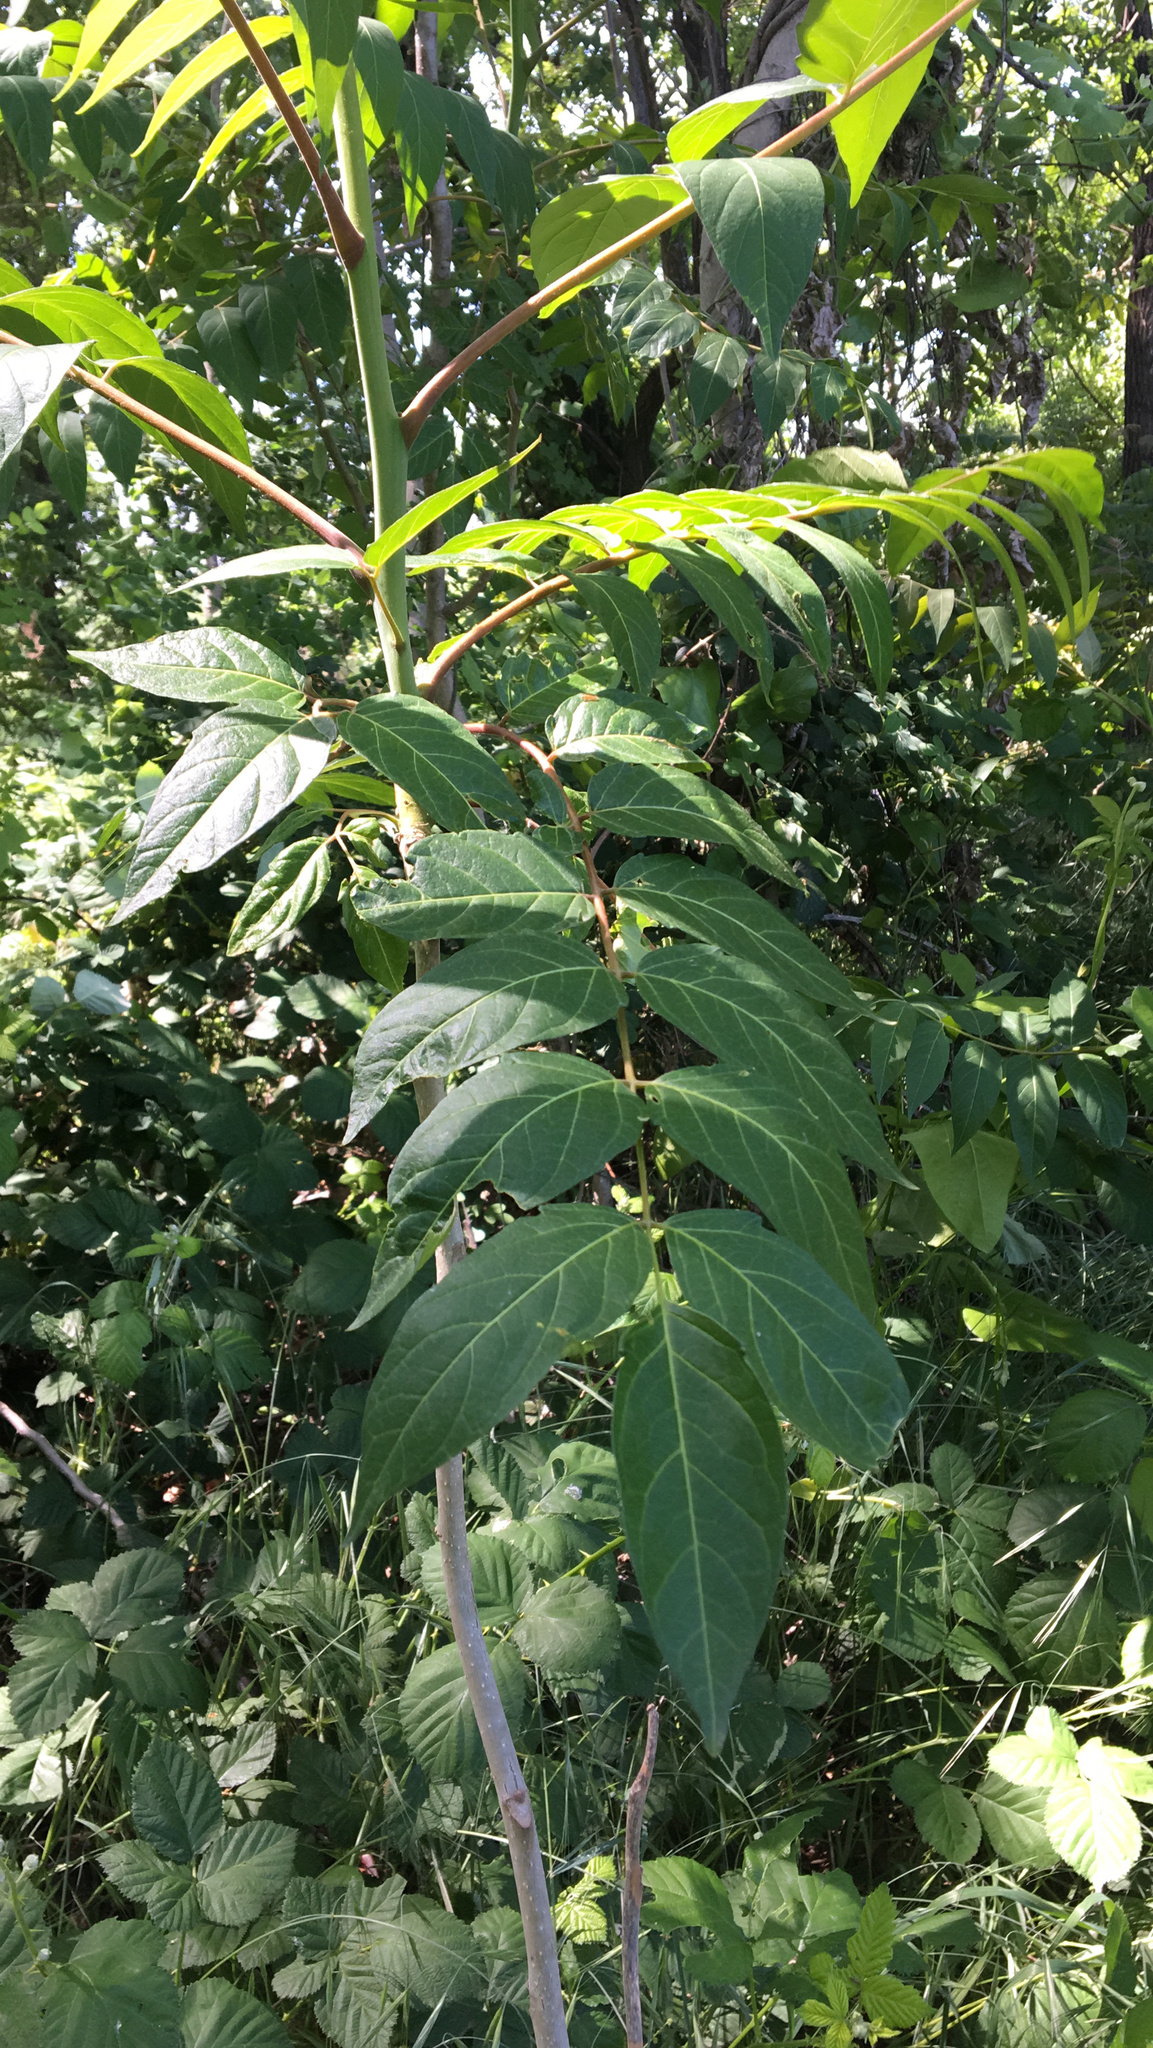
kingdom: Plantae
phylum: Tracheophyta
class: Magnoliopsida
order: Sapindales
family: Simaroubaceae
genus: Ailanthus
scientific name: Ailanthus altissima
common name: Tree-of-heaven
